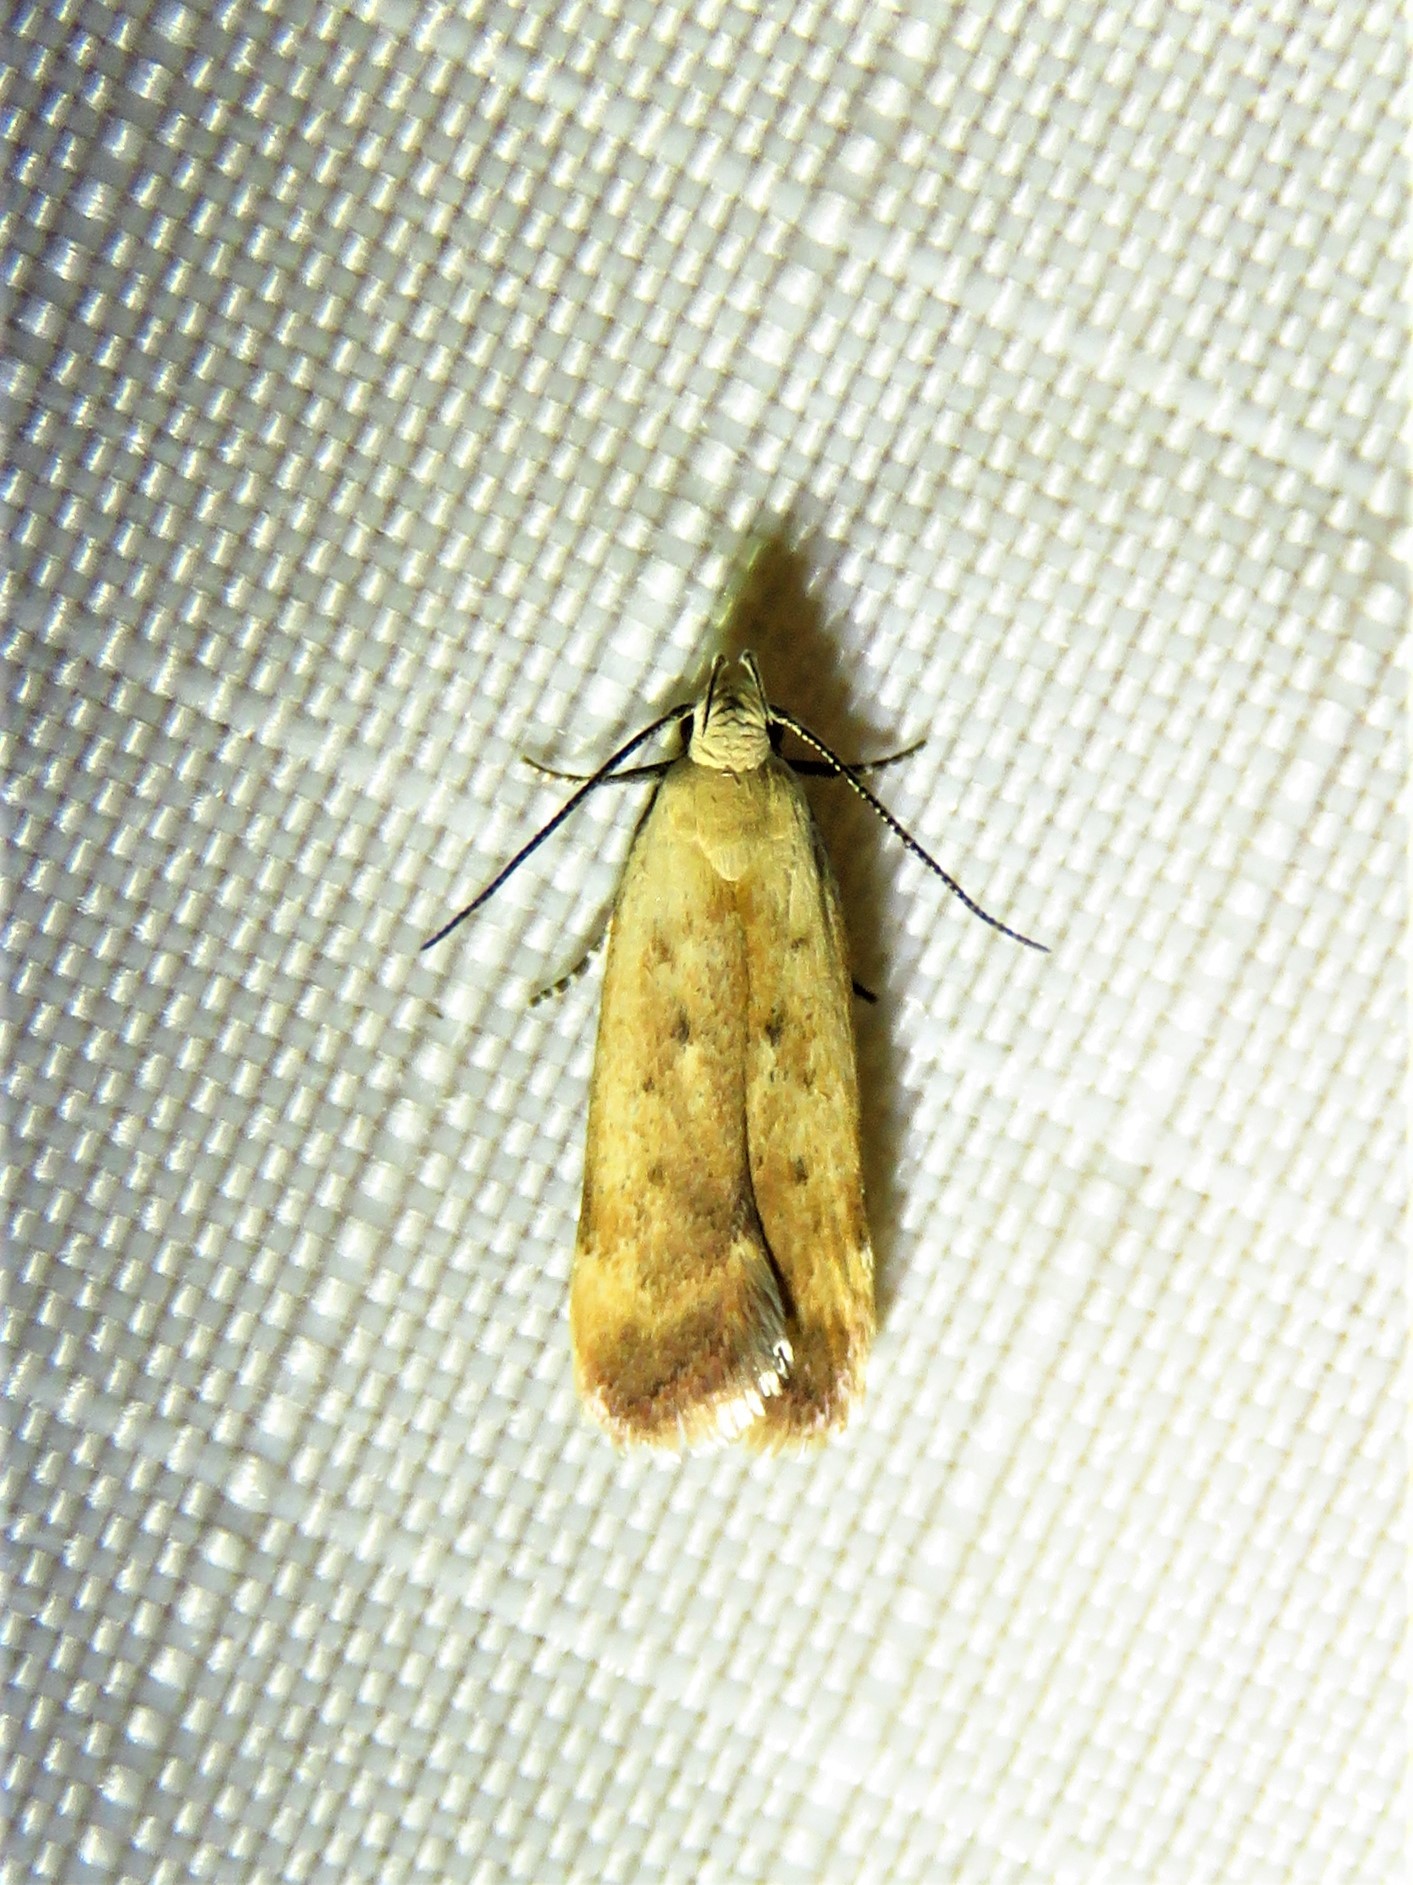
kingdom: Animalia
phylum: Arthropoda
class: Insecta
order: Lepidoptera
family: Gelechiidae
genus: Anacampsis
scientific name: Anacampsis fullonella
